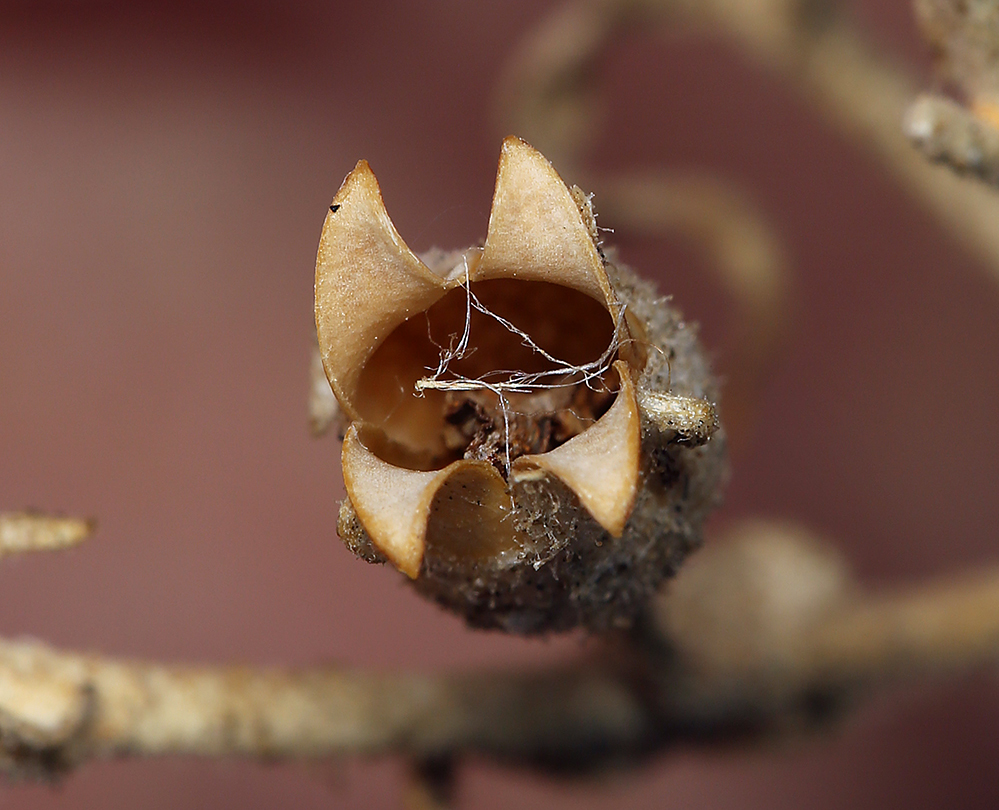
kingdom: Plantae
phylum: Tracheophyta
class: Magnoliopsida
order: Solanales
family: Solanaceae
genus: Nicotiana
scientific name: Nicotiana obtusifolia
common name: Desert tobacco
